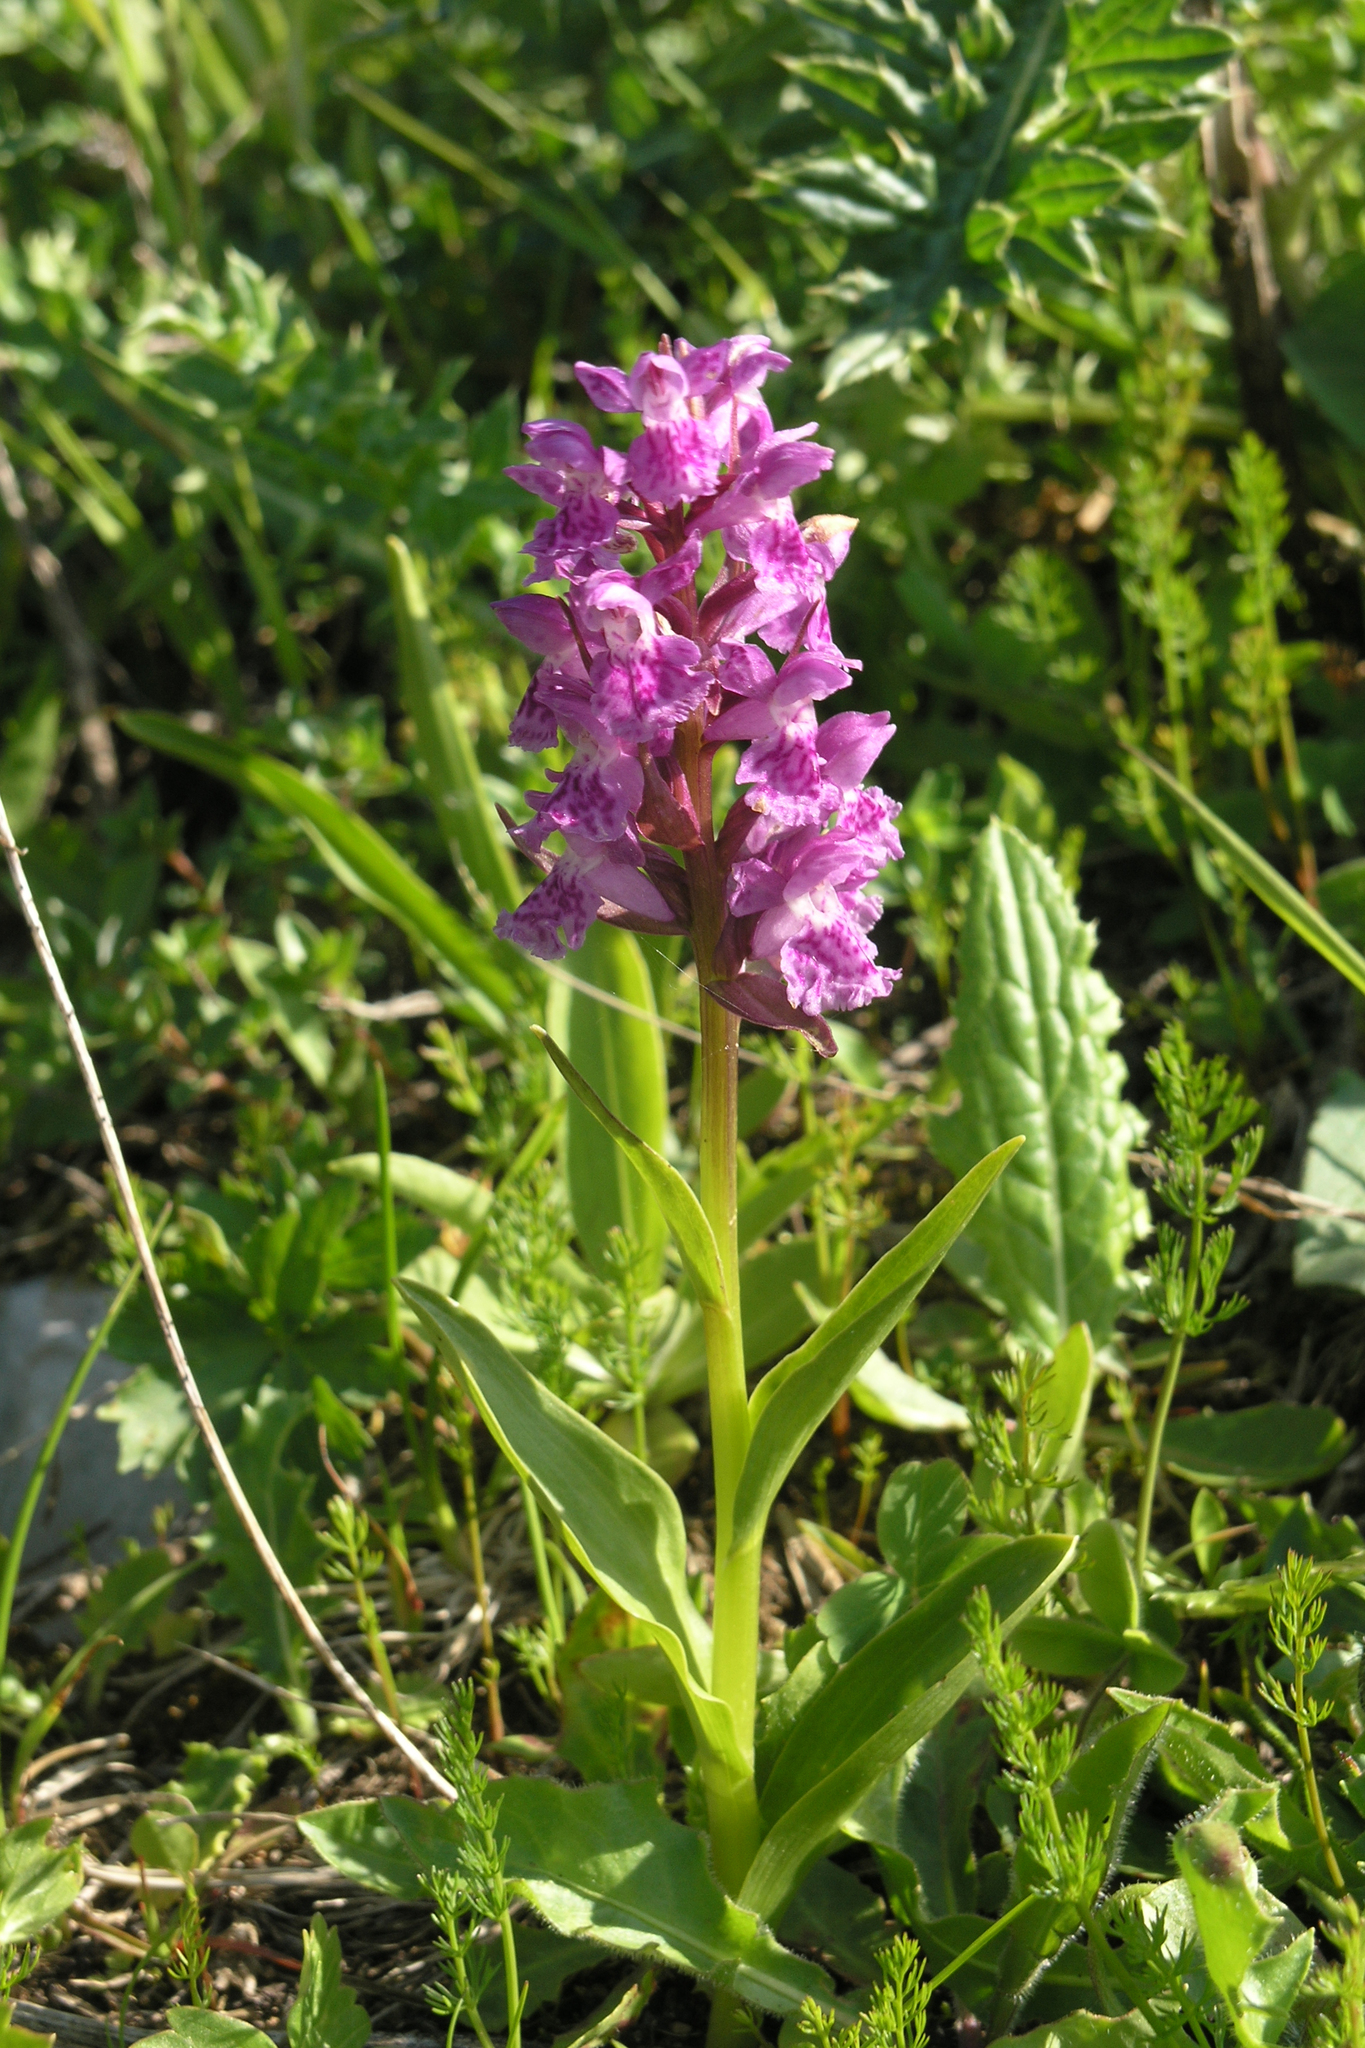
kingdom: Plantae
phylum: Tracheophyta
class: Liliopsida
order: Asparagales
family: Orchidaceae
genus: Dactylorhiza
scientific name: Dactylorhiza euxina
